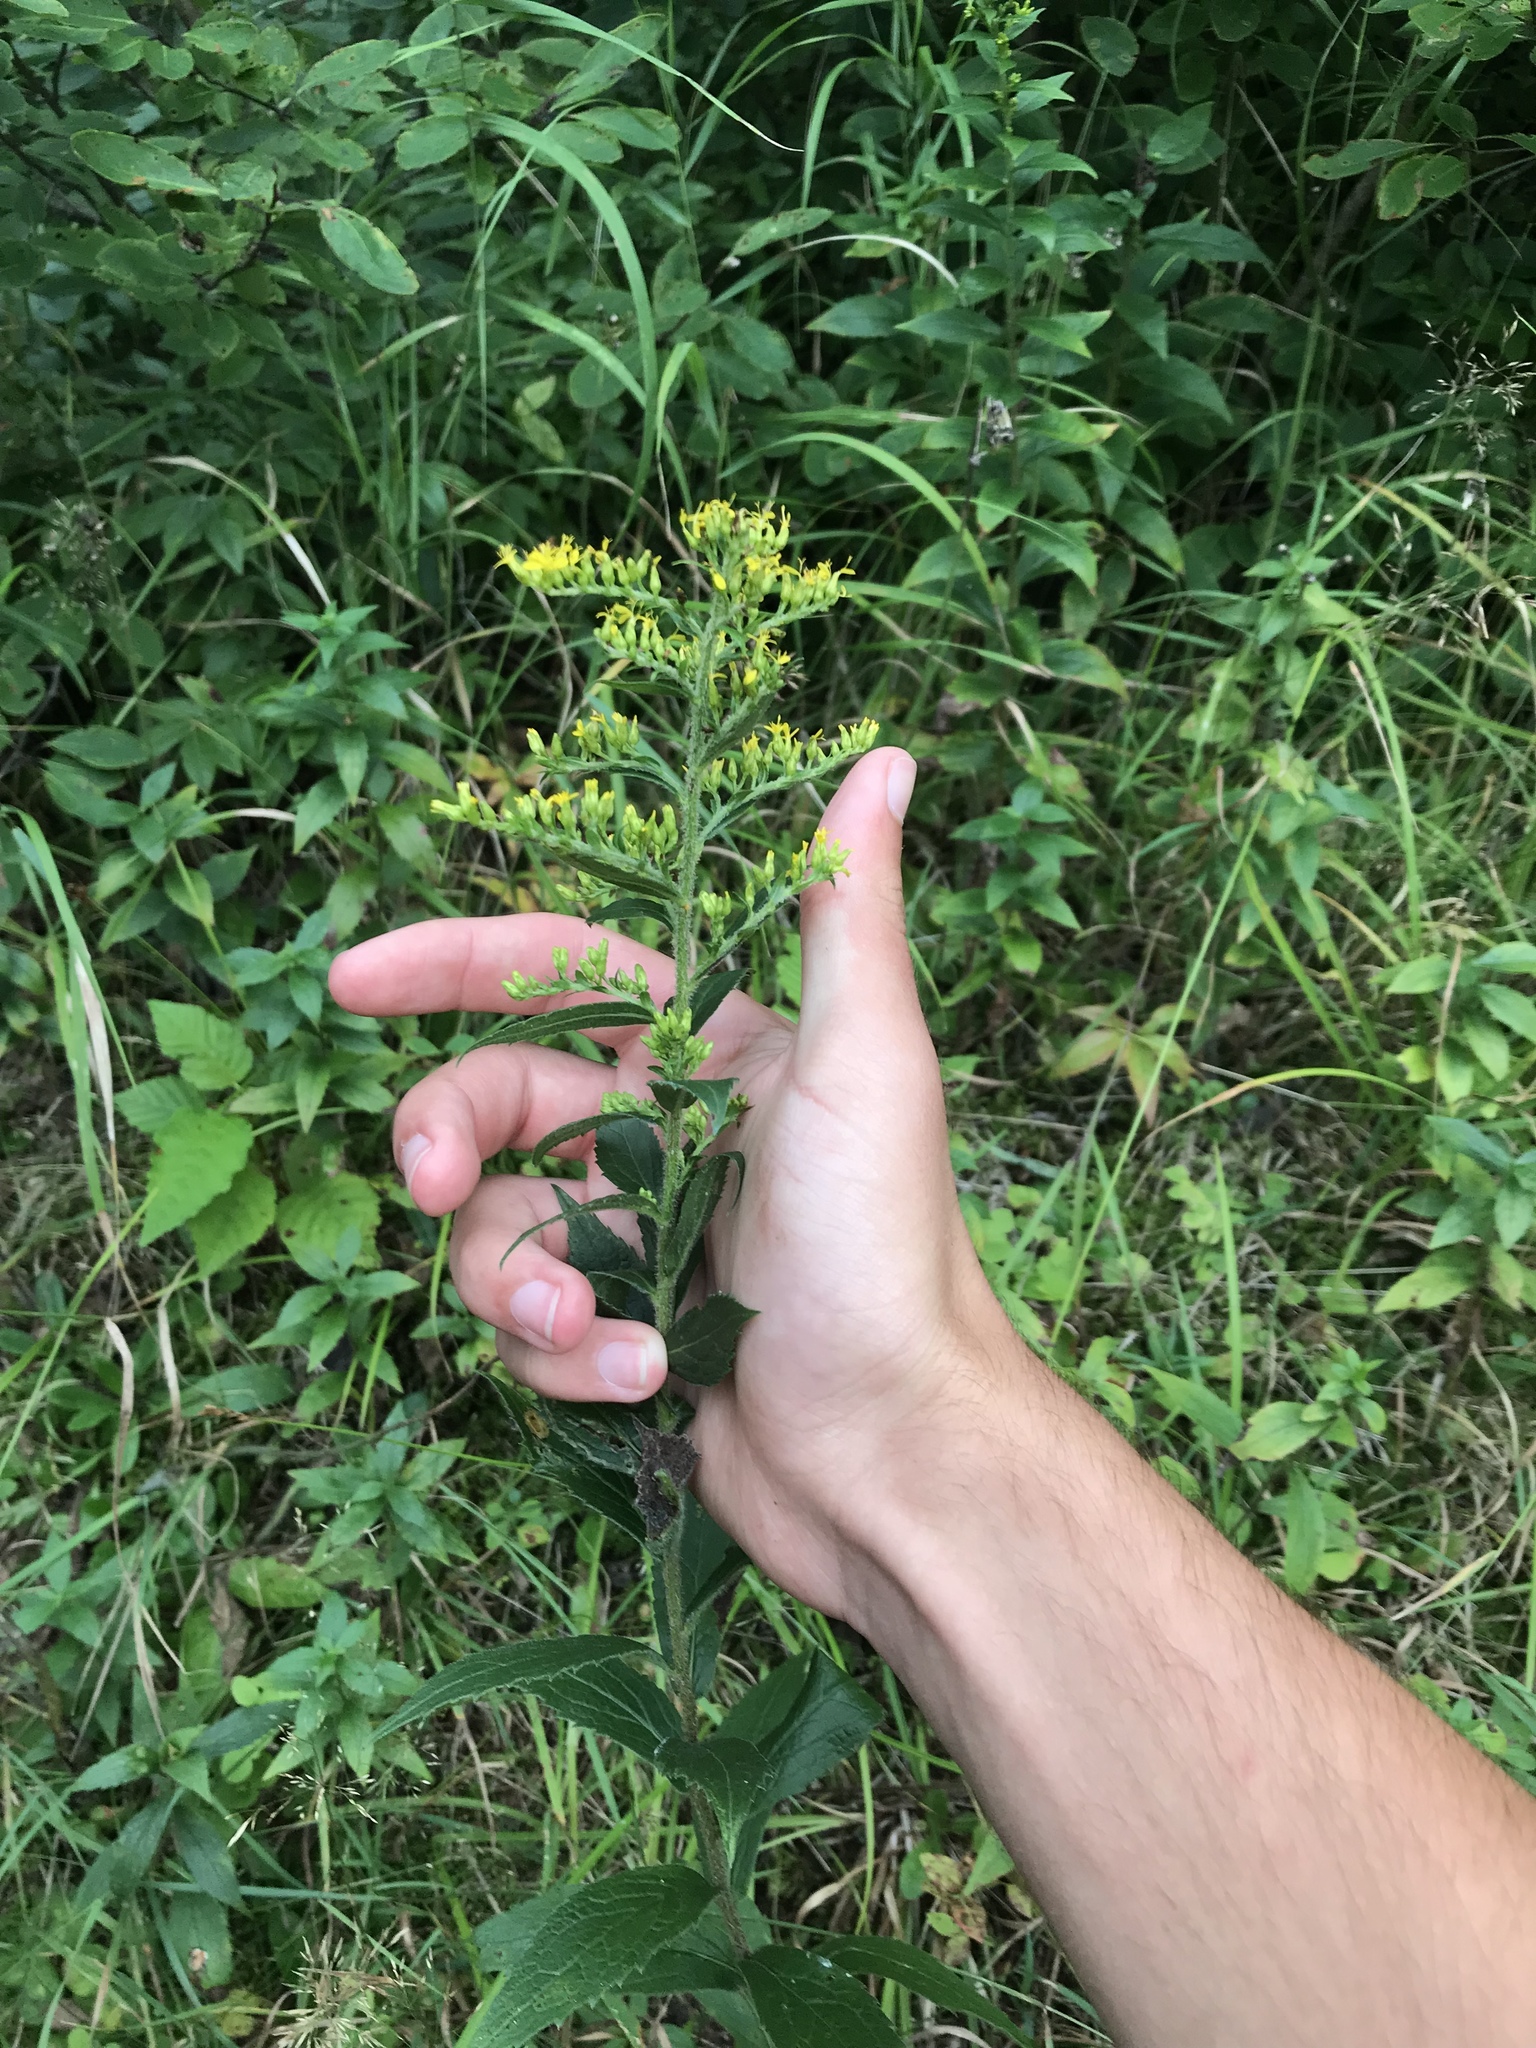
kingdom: Plantae
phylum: Tracheophyta
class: Magnoliopsida
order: Asterales
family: Asteraceae
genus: Solidago
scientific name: Solidago rugosa
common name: Rough-stemmed goldenrod
